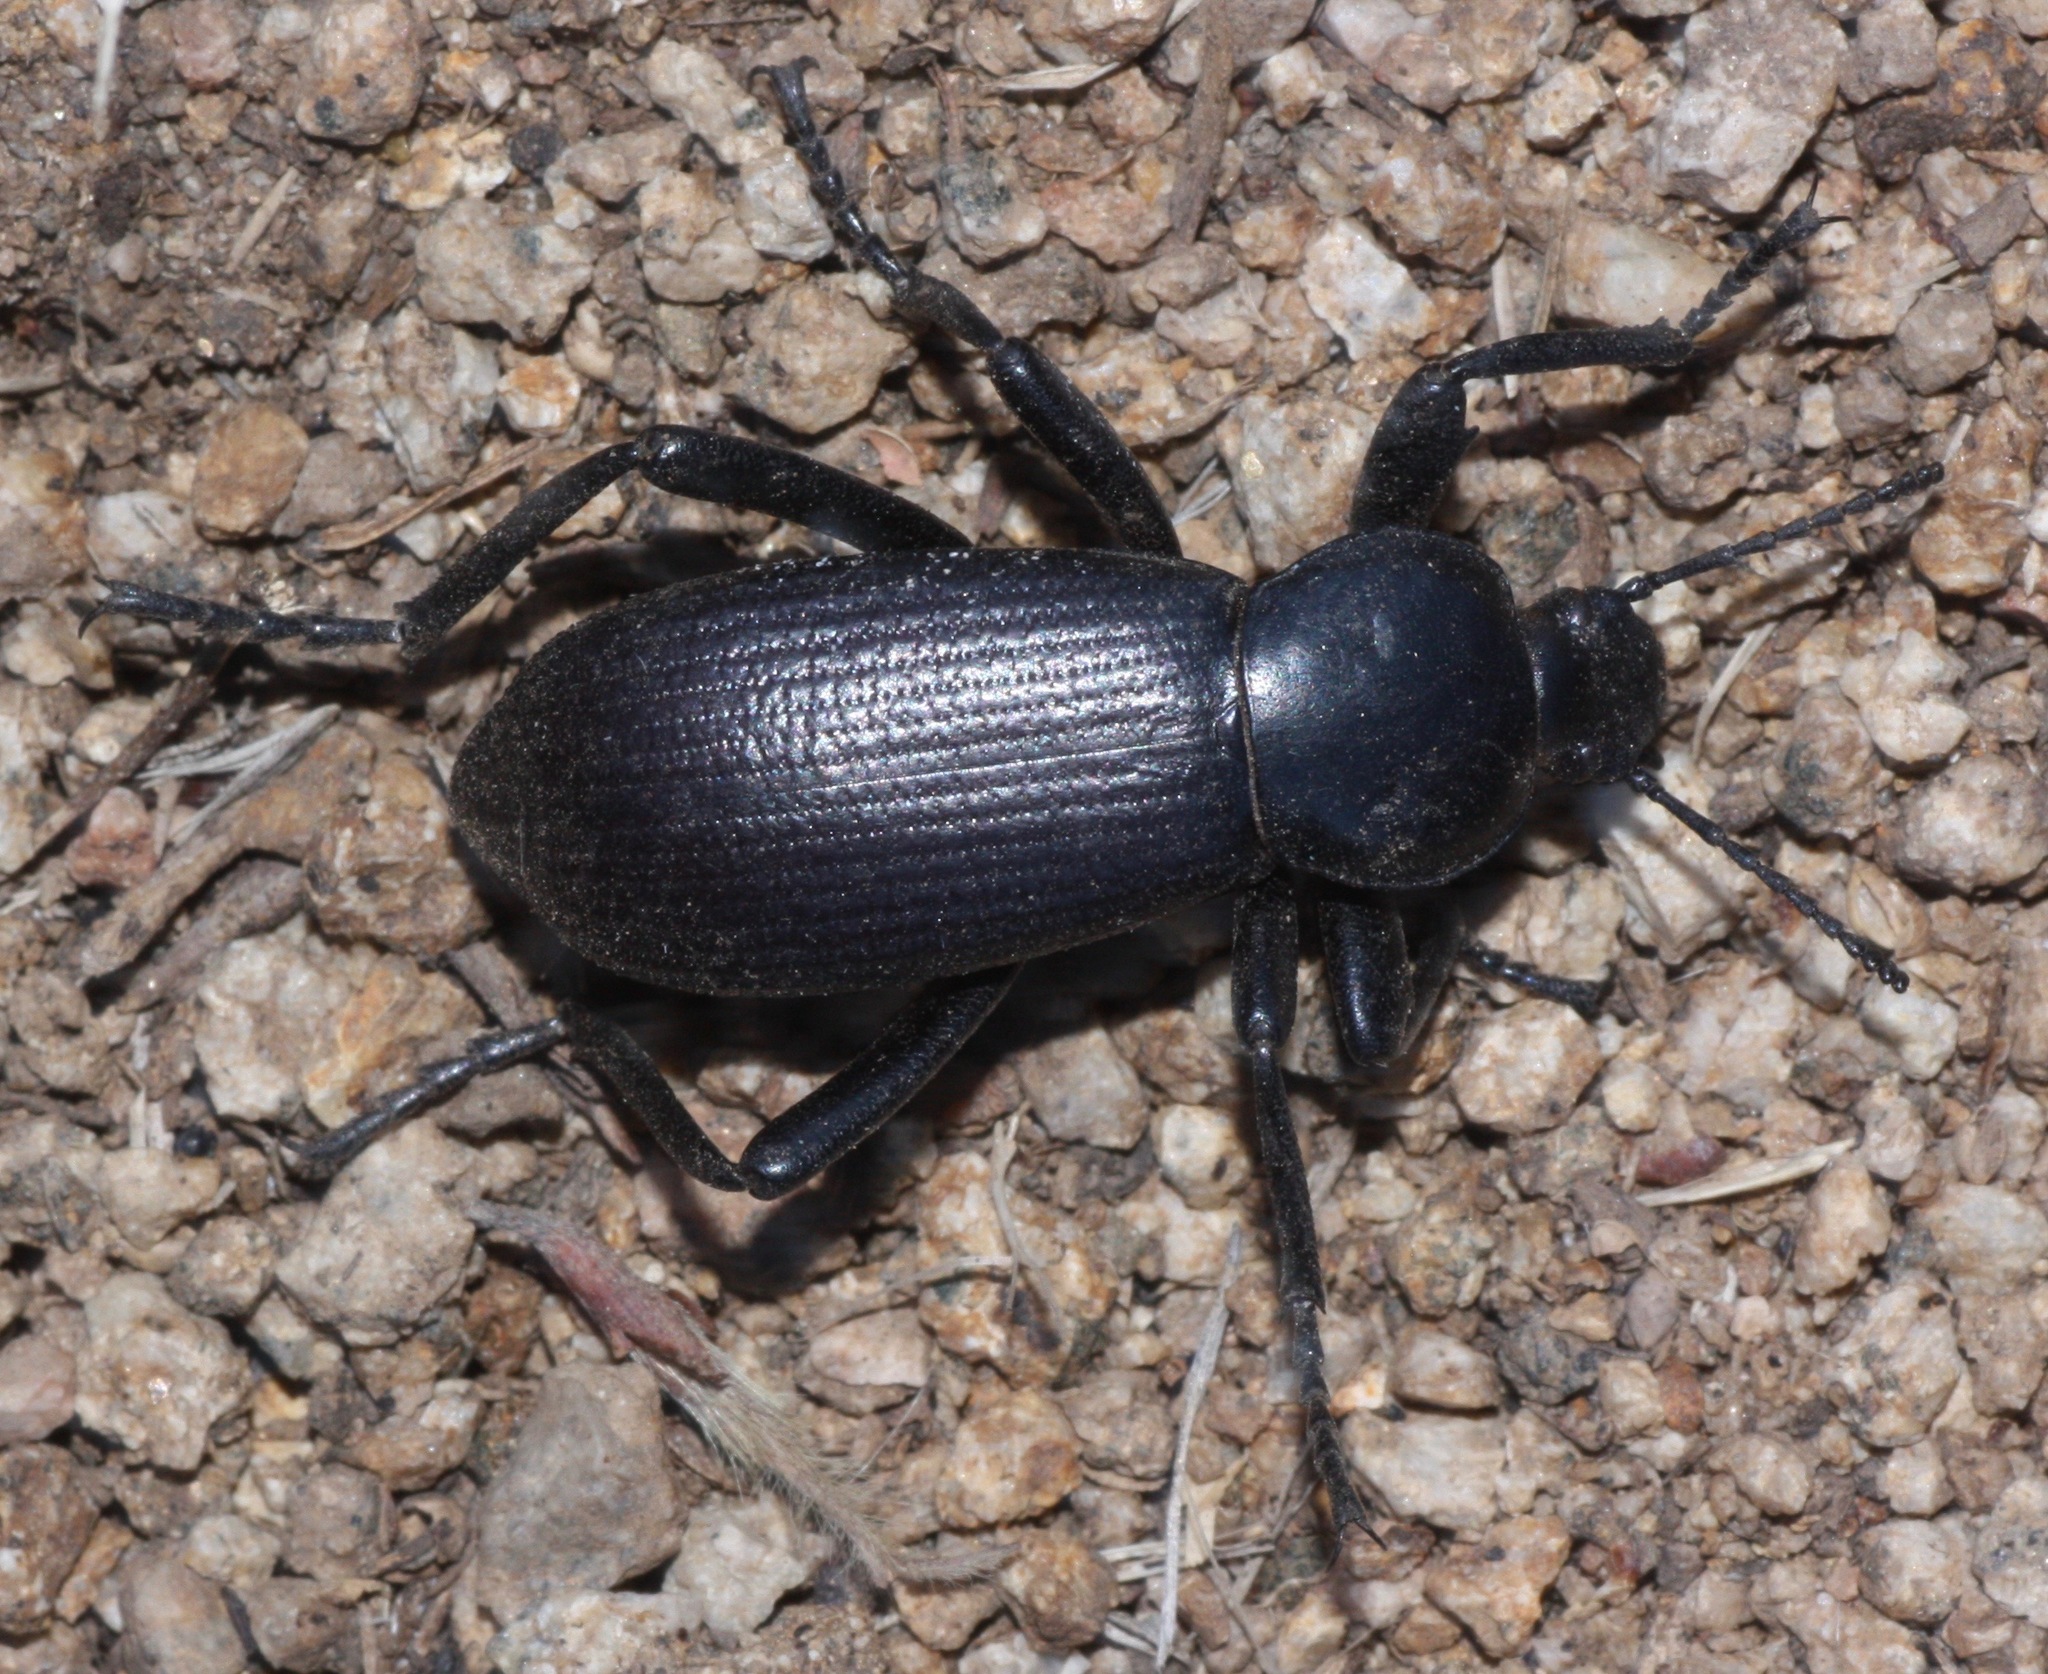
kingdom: Animalia
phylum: Arthropoda
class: Insecta
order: Coleoptera
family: Tenebrionidae
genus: Eleodes
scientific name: Eleodes obscura
